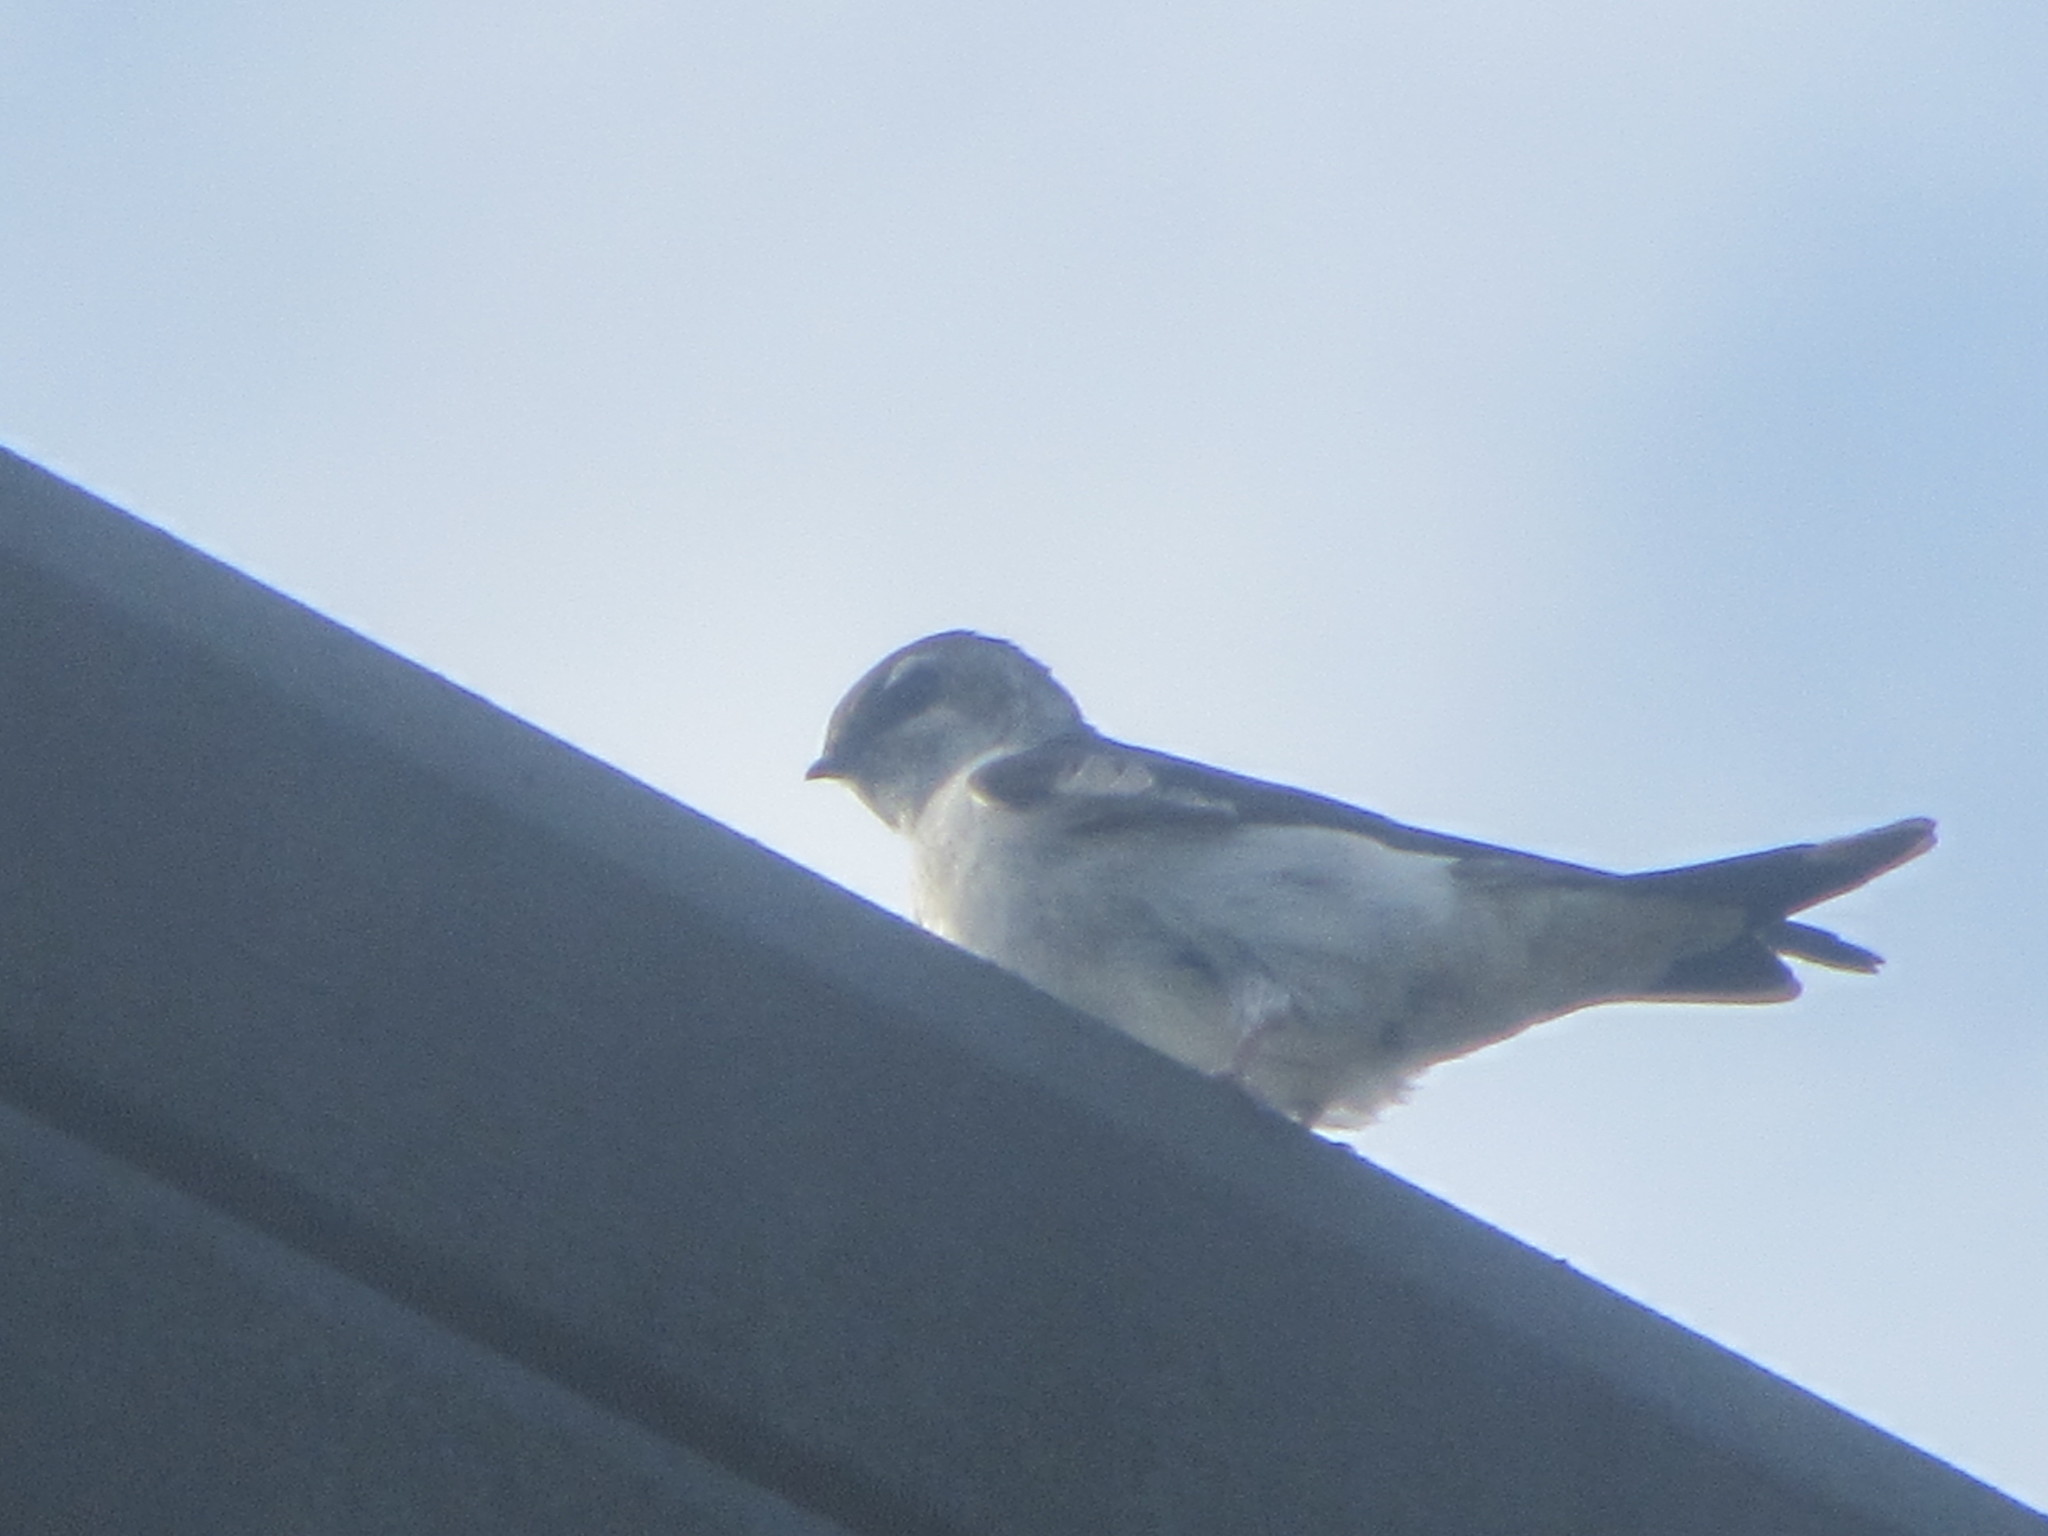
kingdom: Animalia
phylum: Chordata
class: Aves
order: Passeriformes
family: Hirundinidae
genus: Tachycineta
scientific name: Tachycineta thalassina
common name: Violet-green swallow
